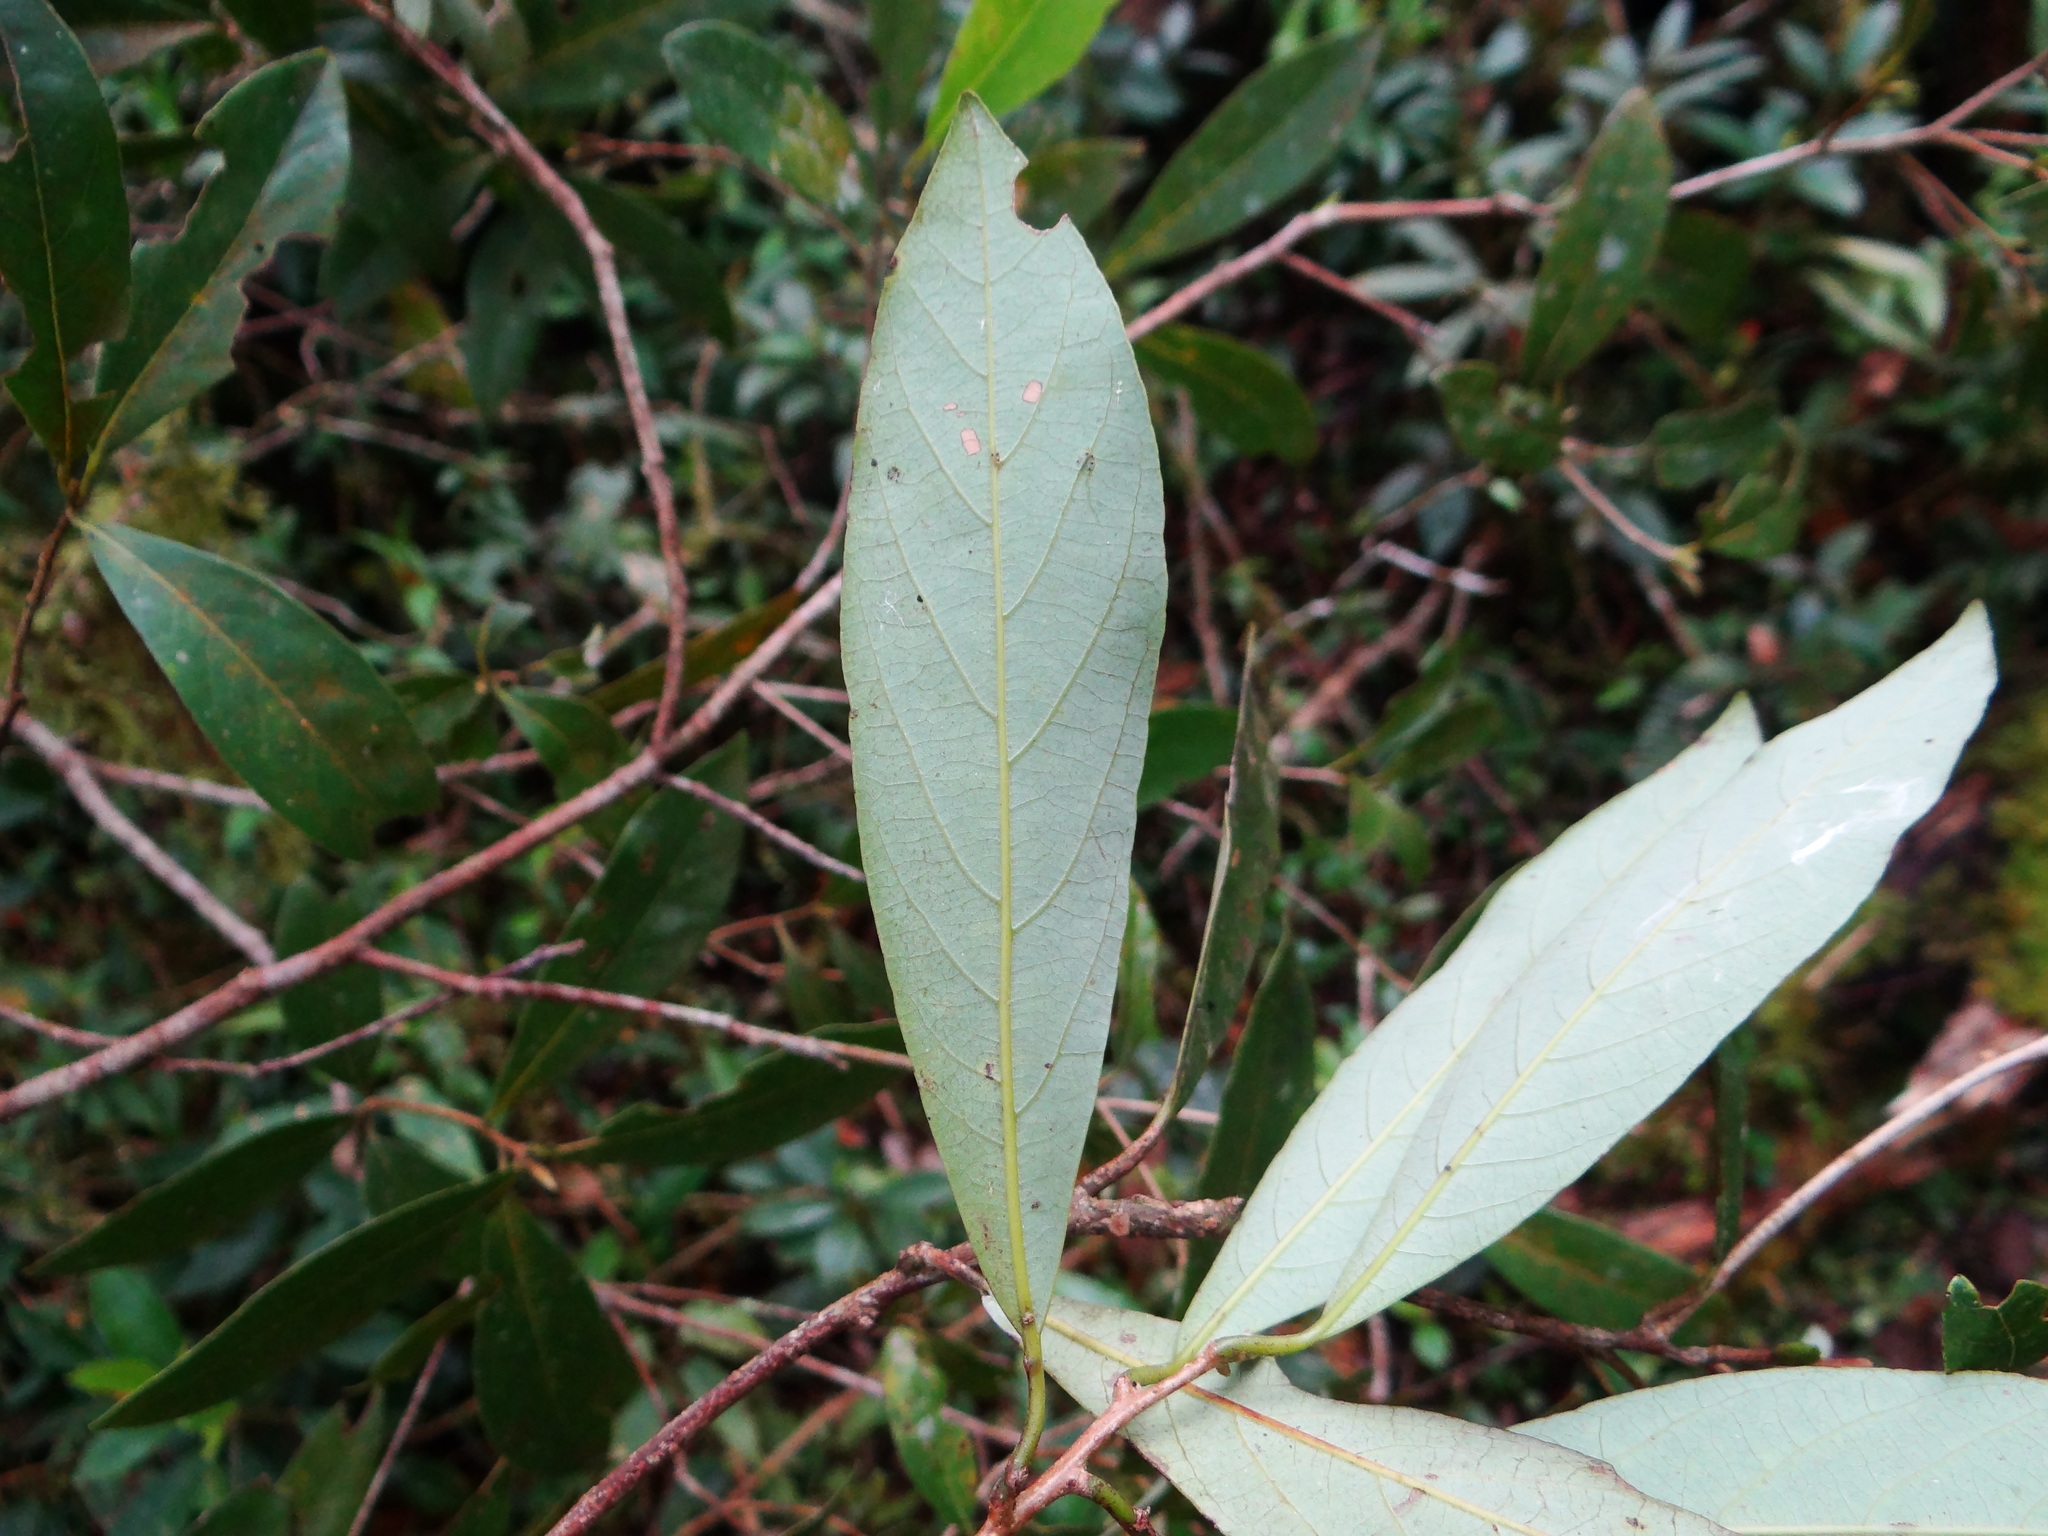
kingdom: Plantae
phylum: Tracheophyta
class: Magnoliopsida
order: Laurales
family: Lauraceae
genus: Litsea
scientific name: Litsea morrisonensis
